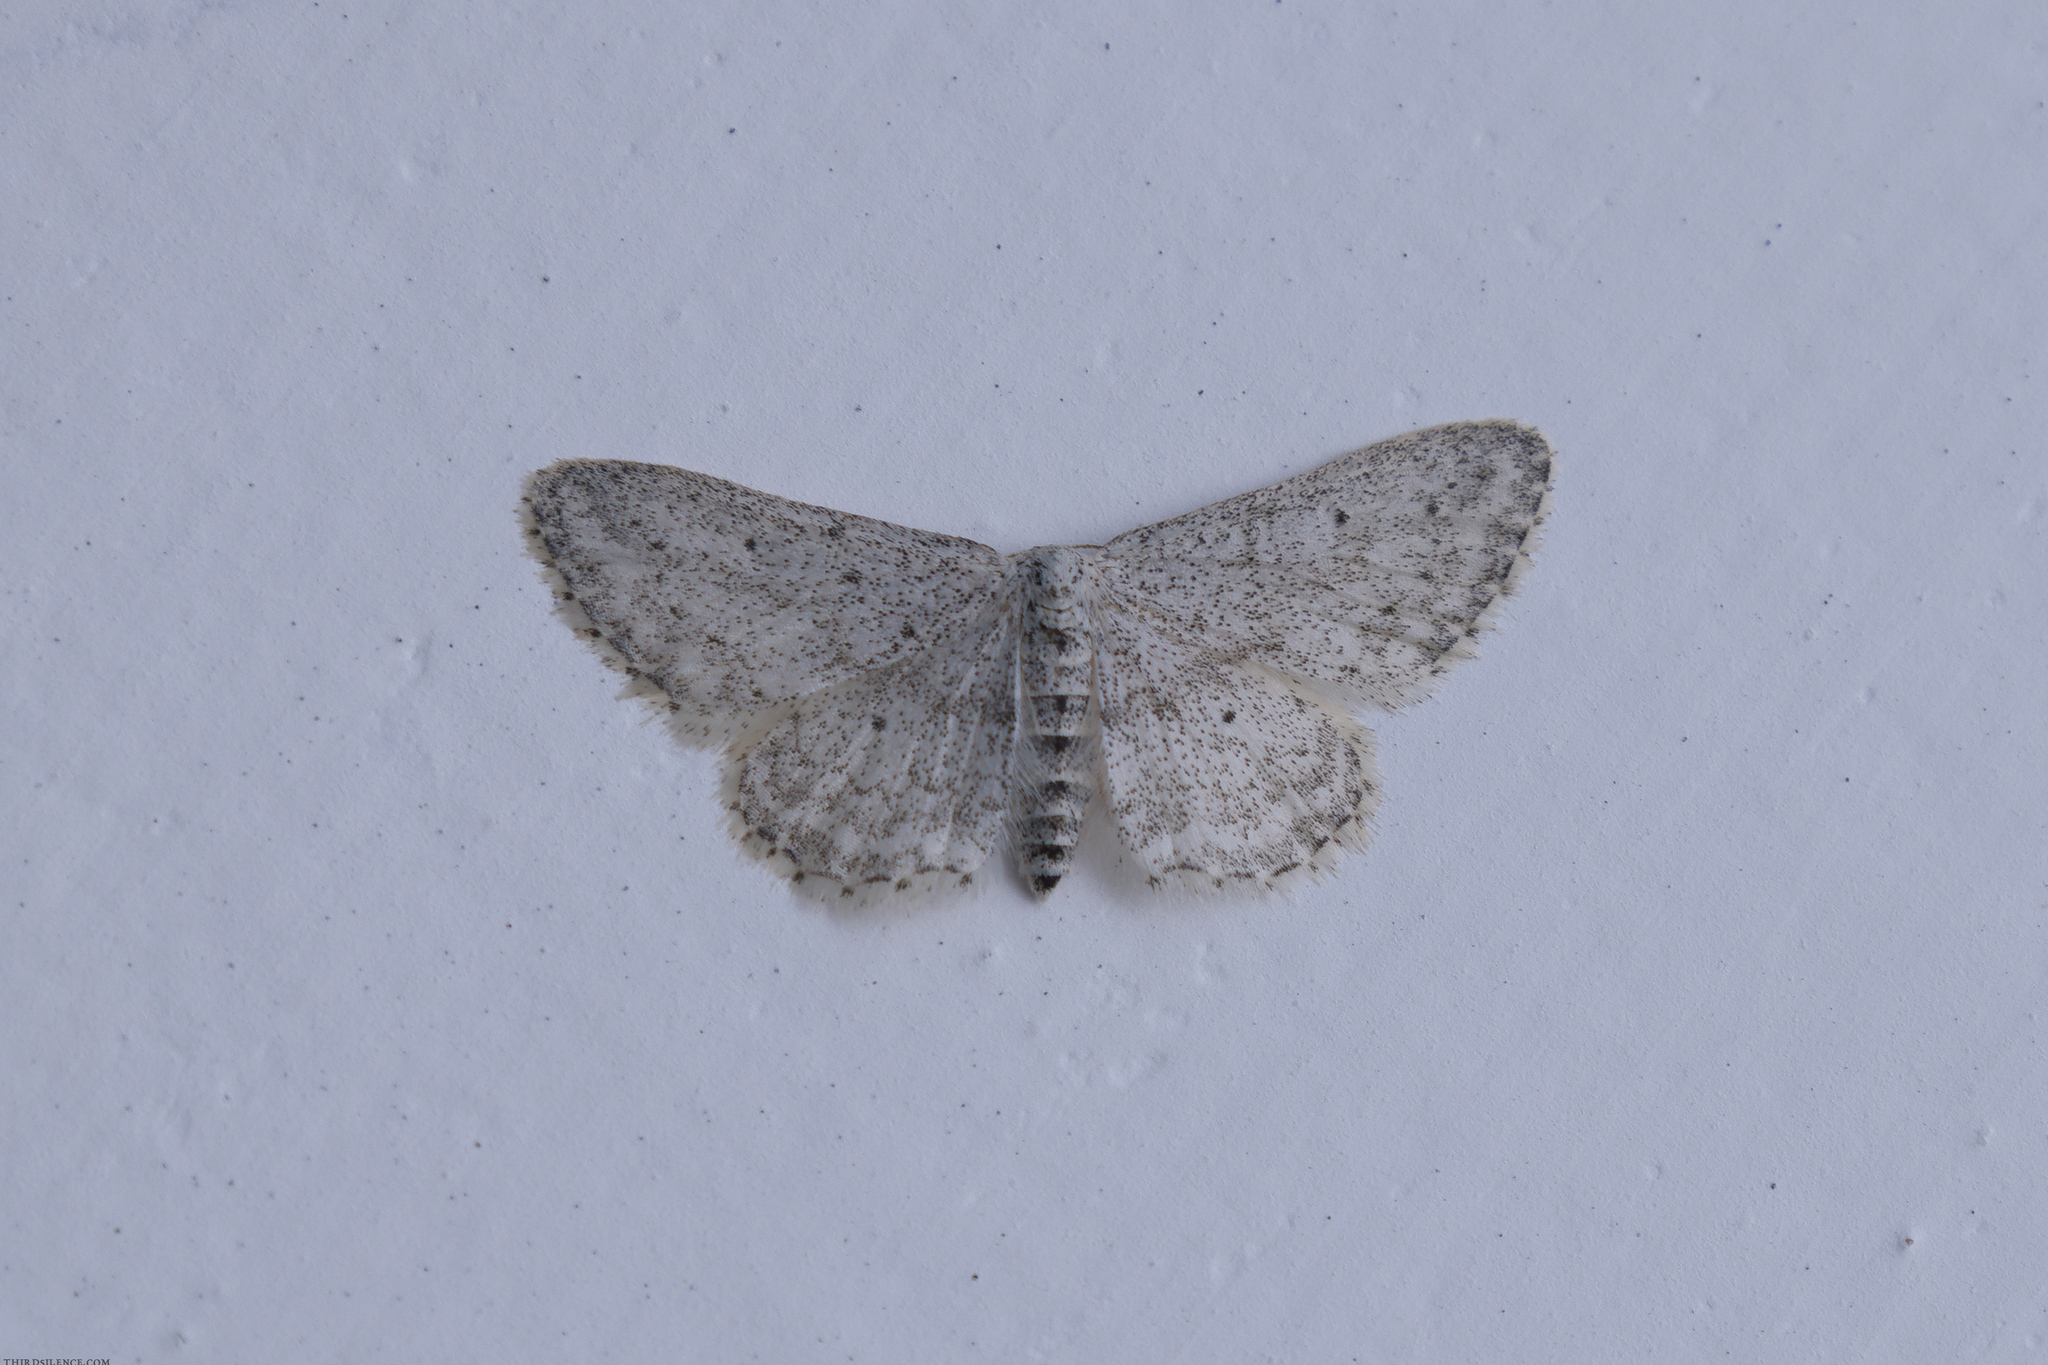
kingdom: Animalia
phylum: Arthropoda
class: Insecta
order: Lepidoptera
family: Geometridae
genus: Idaea
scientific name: Idaea seriata
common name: Small dusty wave
